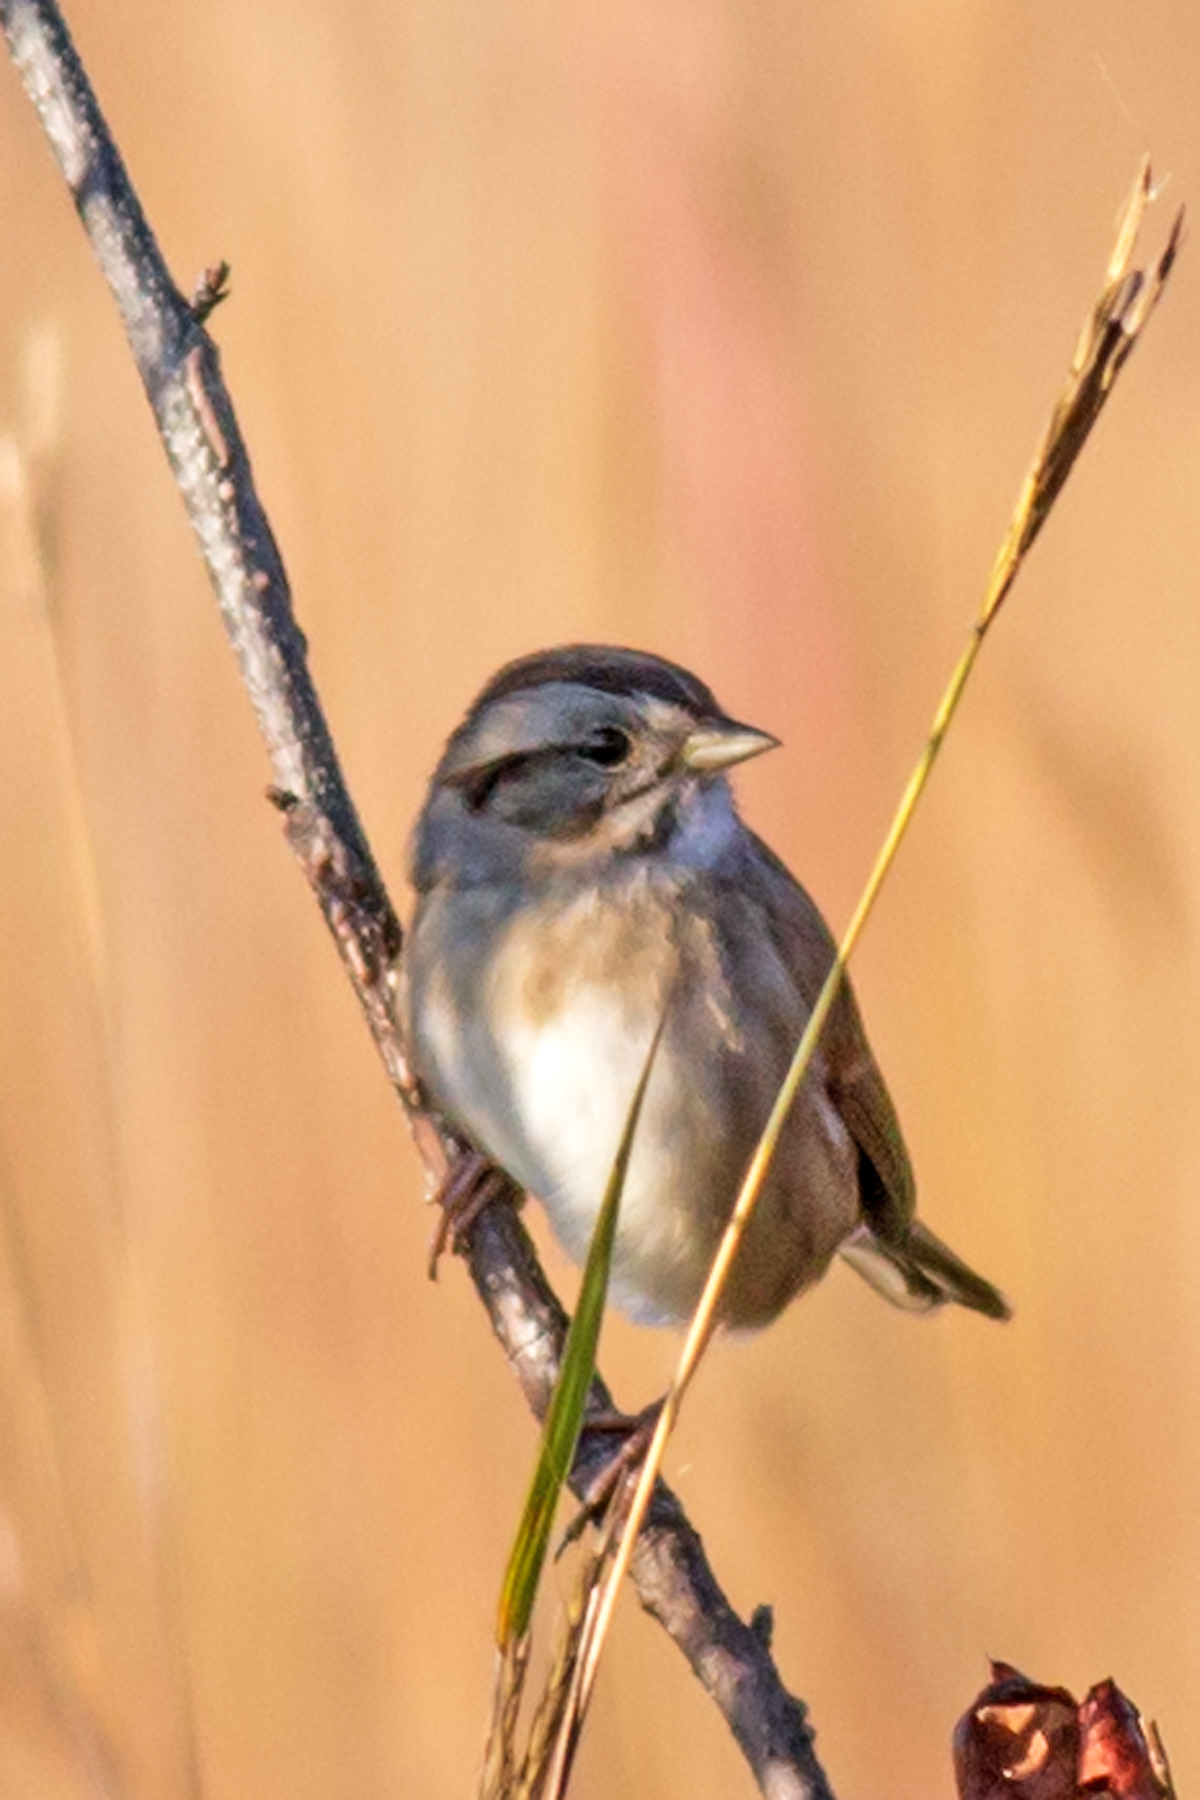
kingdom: Animalia
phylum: Chordata
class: Aves
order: Passeriformes
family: Passerellidae
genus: Melospiza
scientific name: Melospiza georgiana
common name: Swamp sparrow
